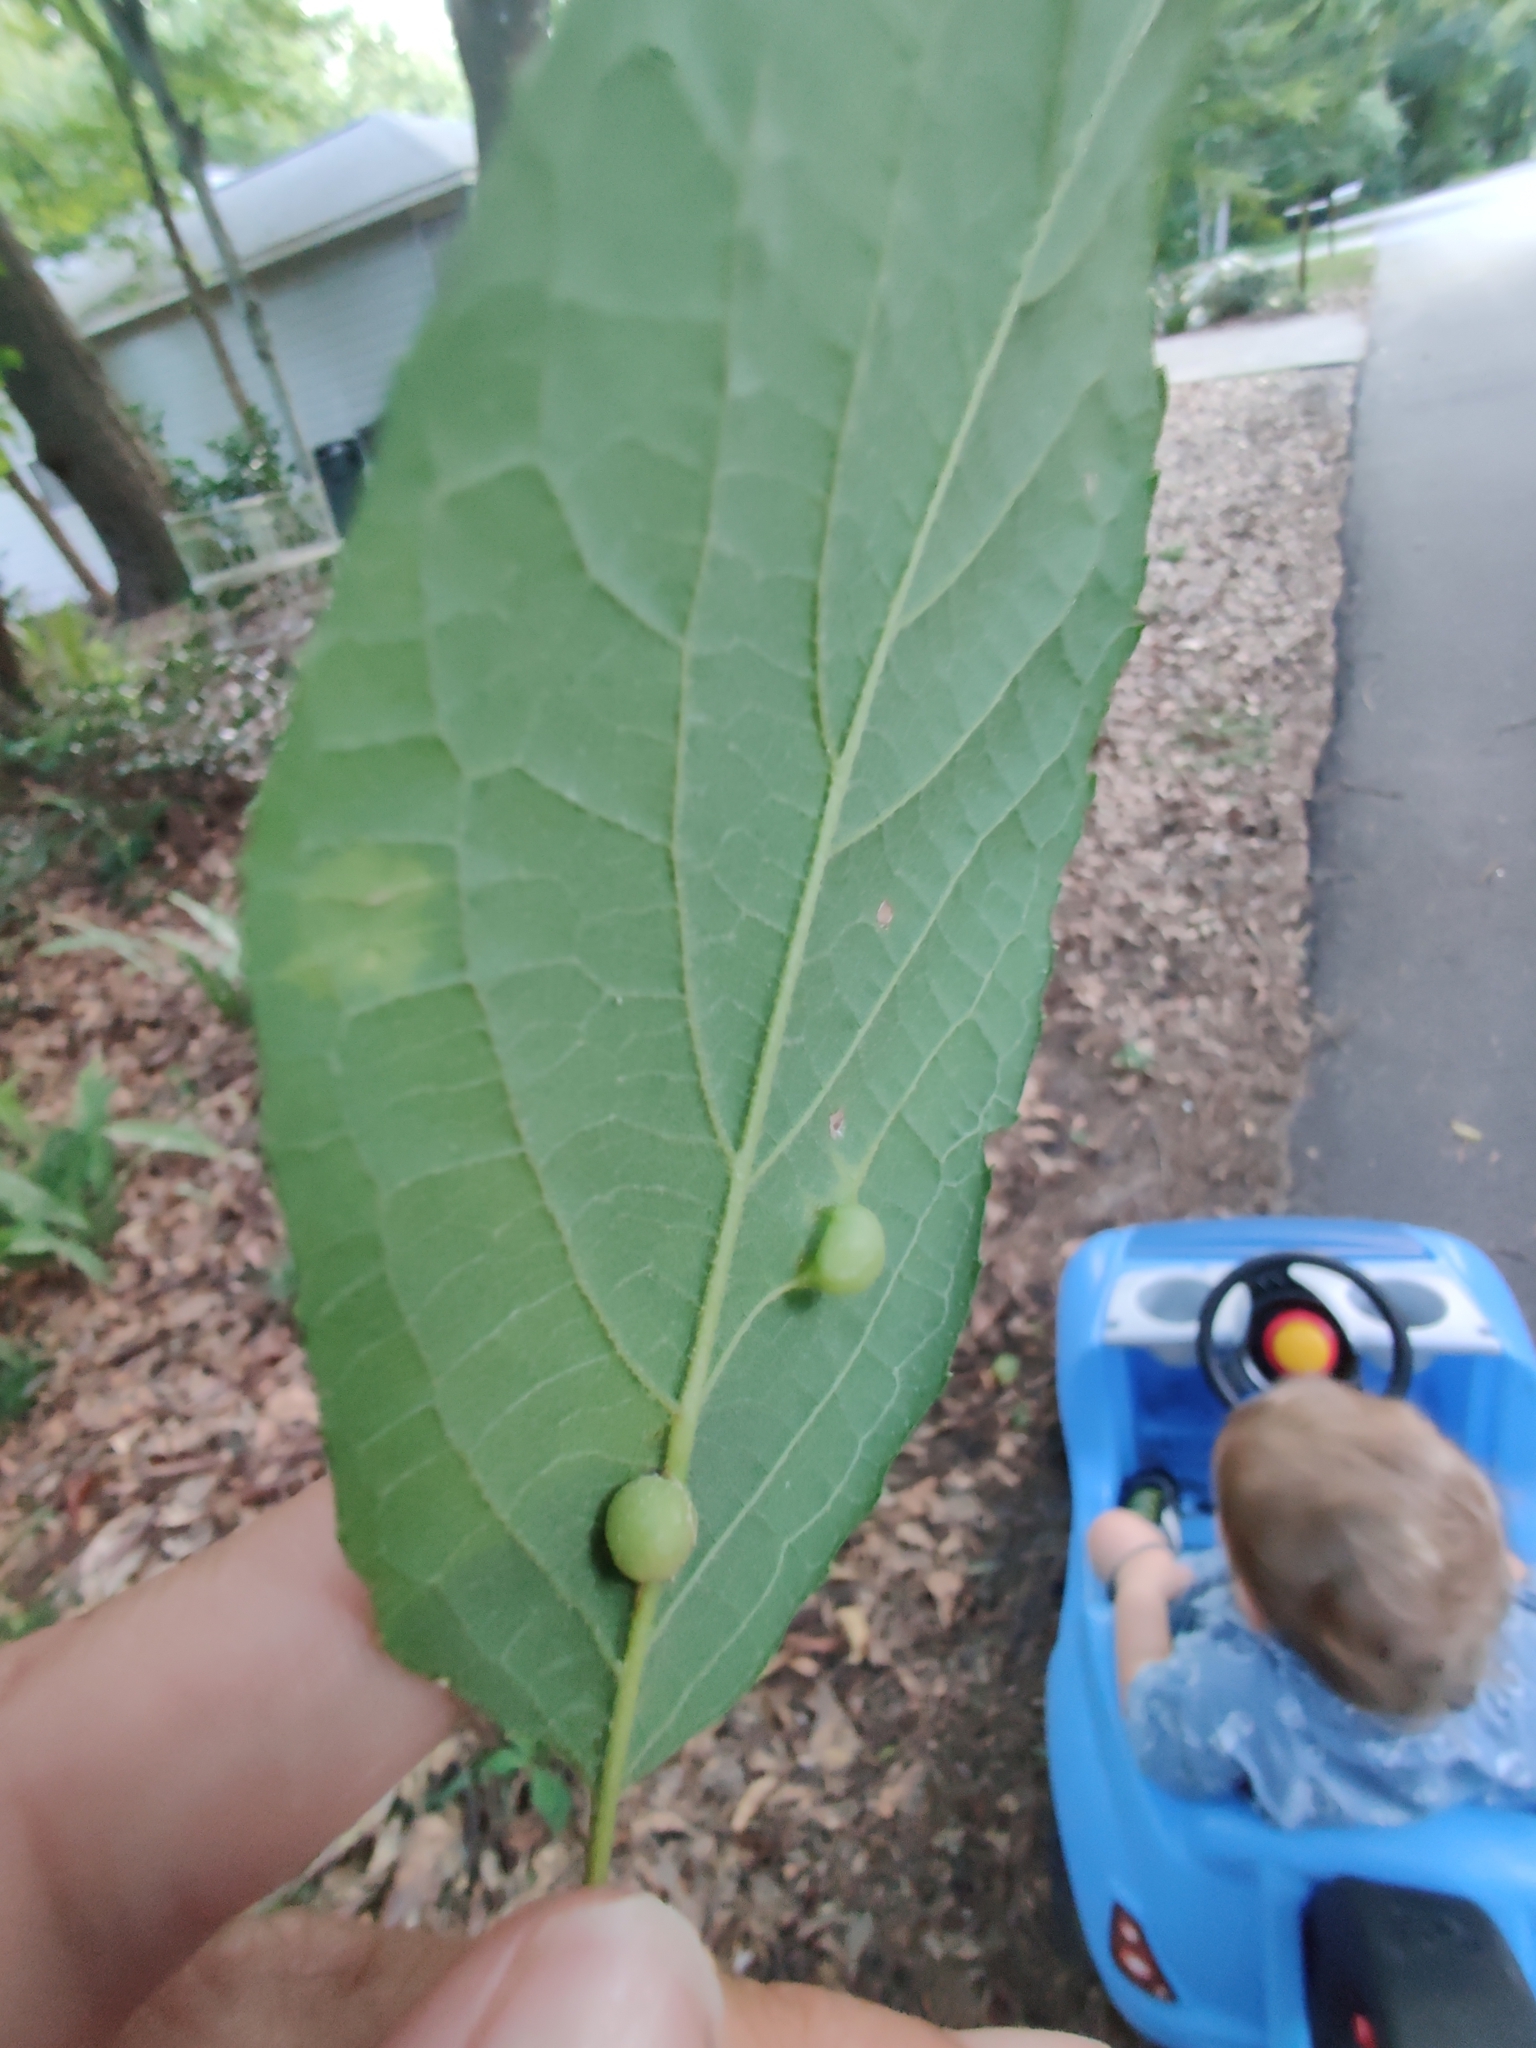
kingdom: Animalia
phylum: Arthropoda
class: Insecta
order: Hemiptera
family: Aphalaridae
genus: Pachypsylla
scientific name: Pachypsylla celtidismamma
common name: Hackberry nipplegall psyllid
